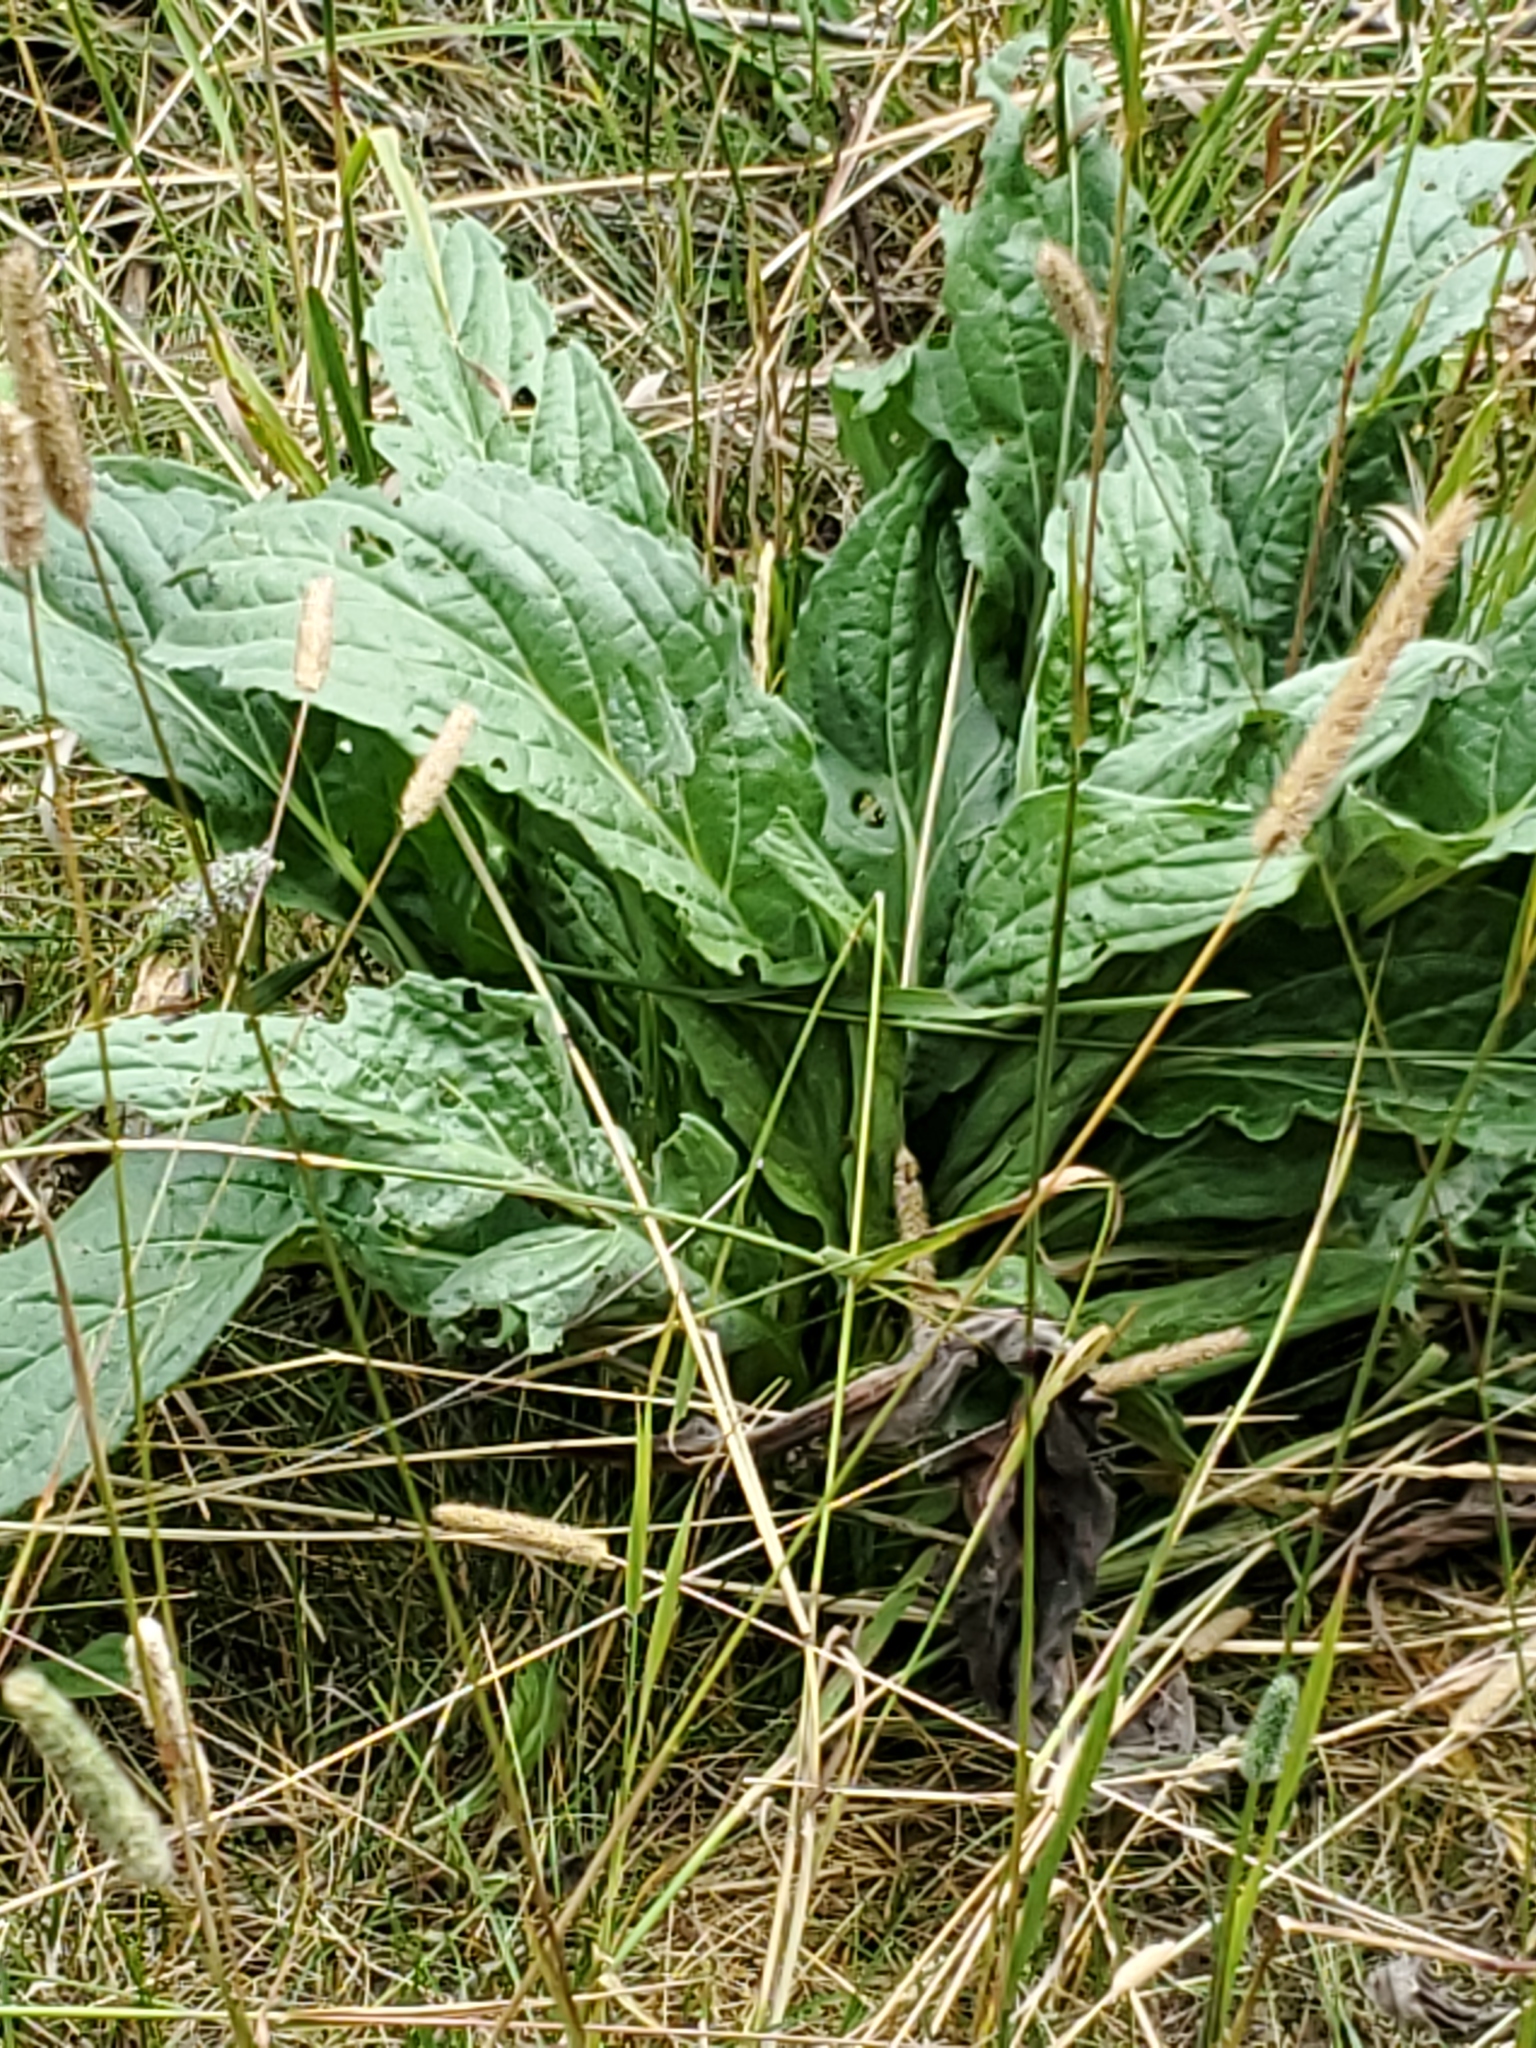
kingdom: Plantae
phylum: Tracheophyta
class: Magnoliopsida
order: Boraginales
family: Boraginaceae
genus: Cynoglossum
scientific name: Cynoglossum officinale
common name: Hound's-tongue
